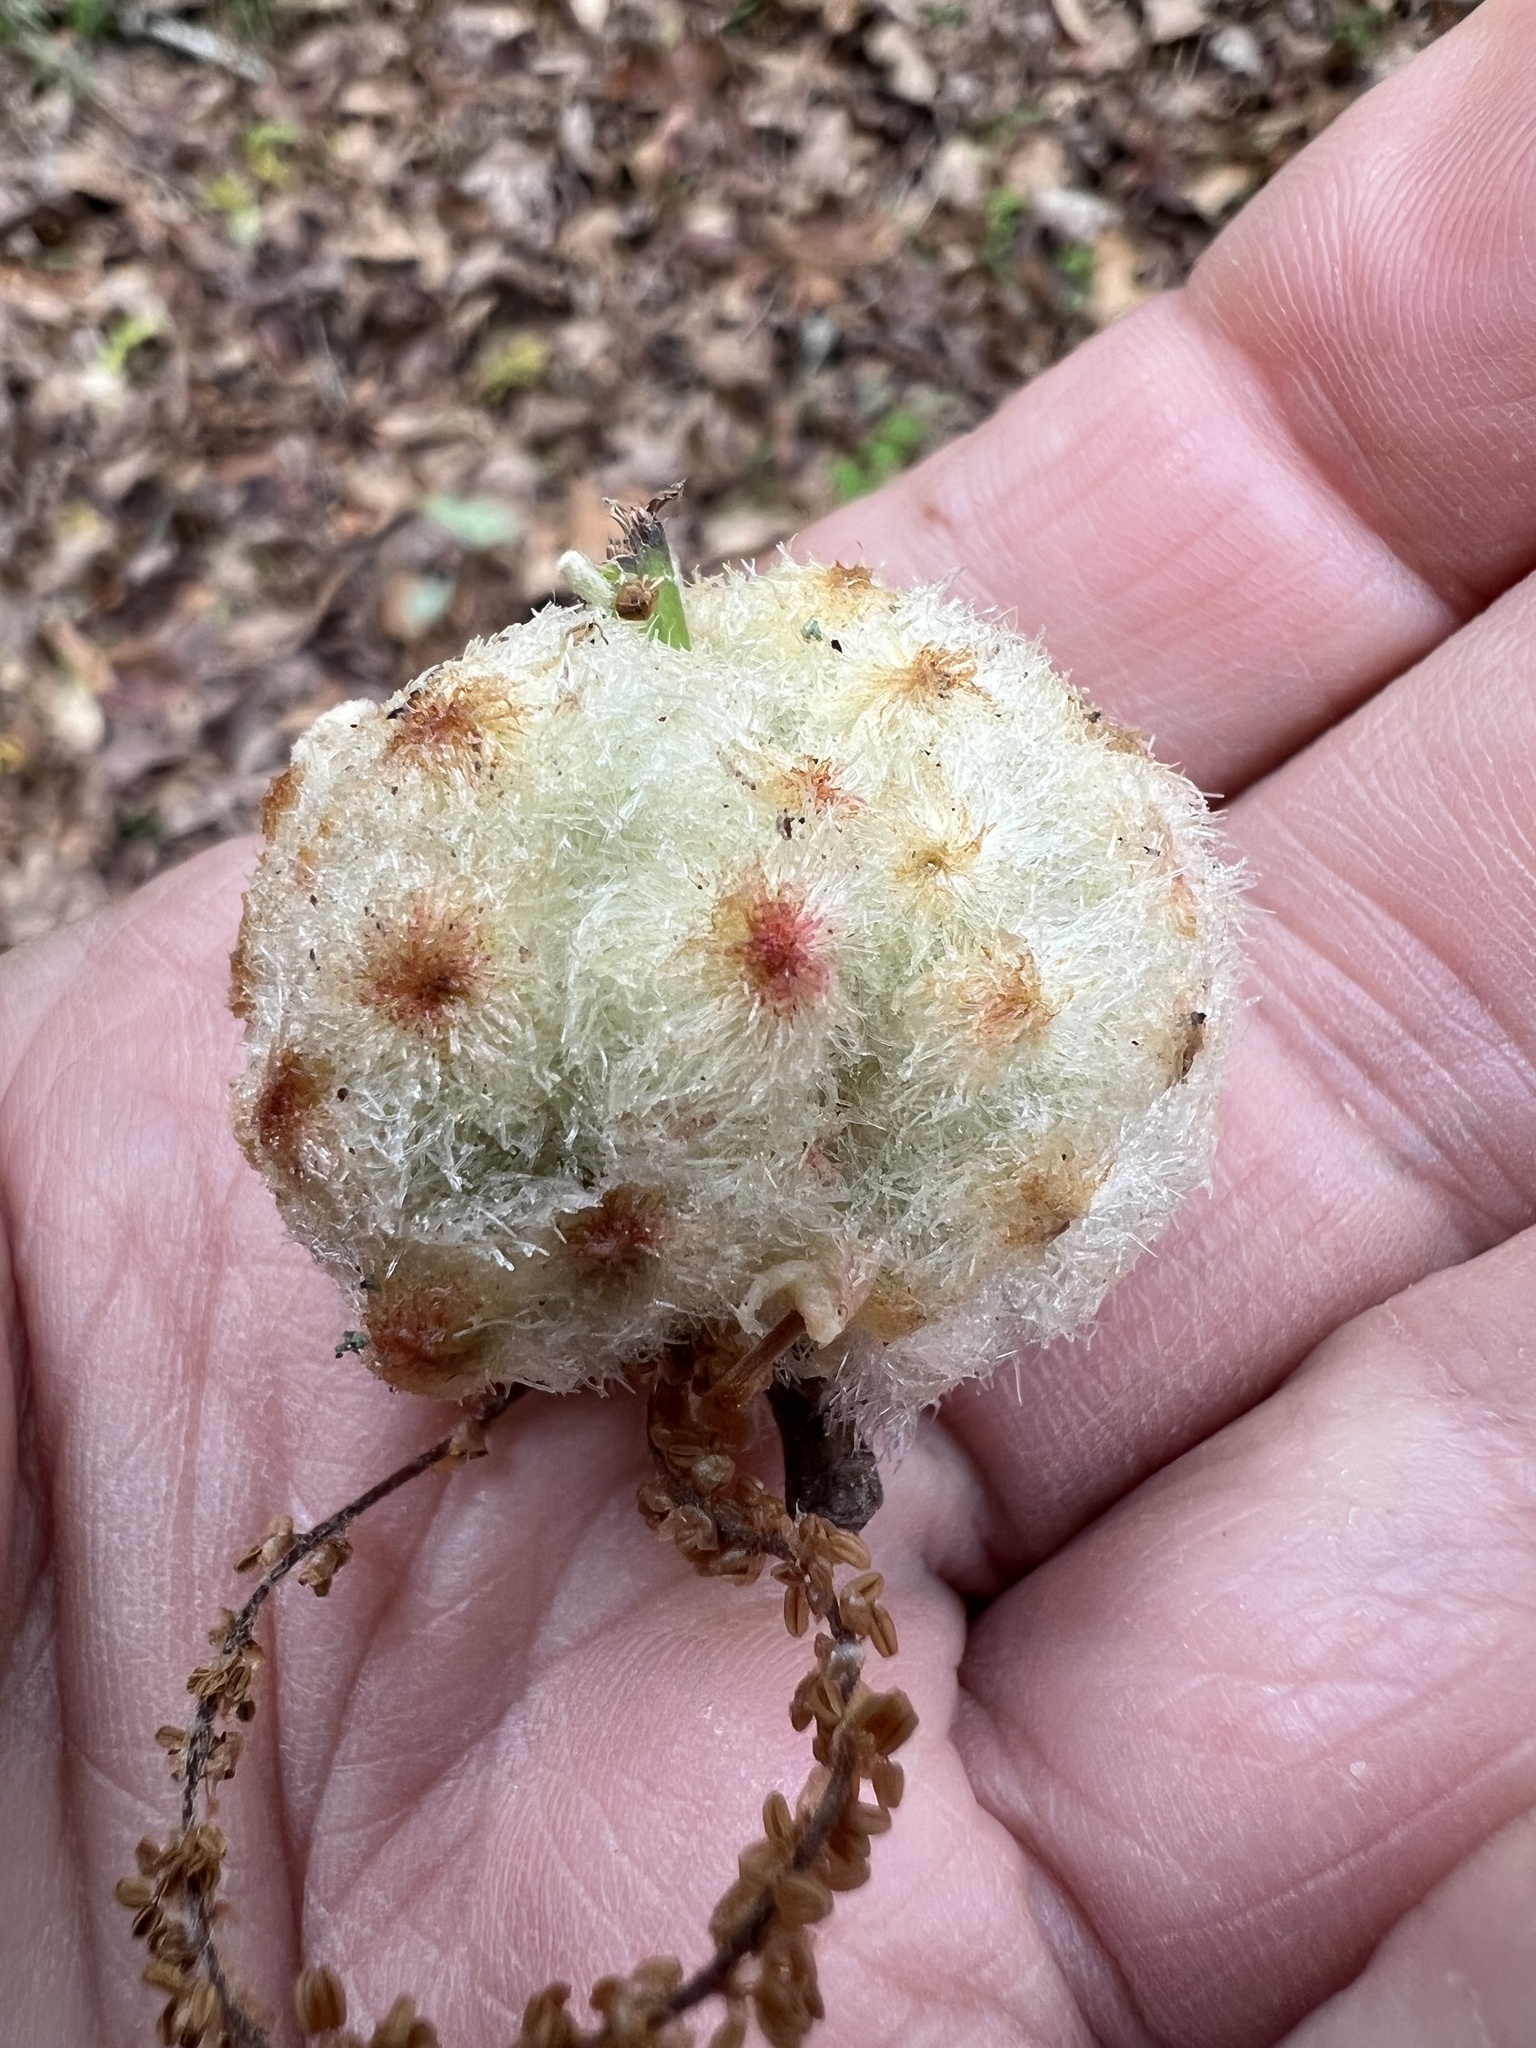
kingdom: Animalia
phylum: Arthropoda
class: Insecta
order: Hymenoptera
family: Cynipidae
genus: Callirhytis
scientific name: Callirhytis
